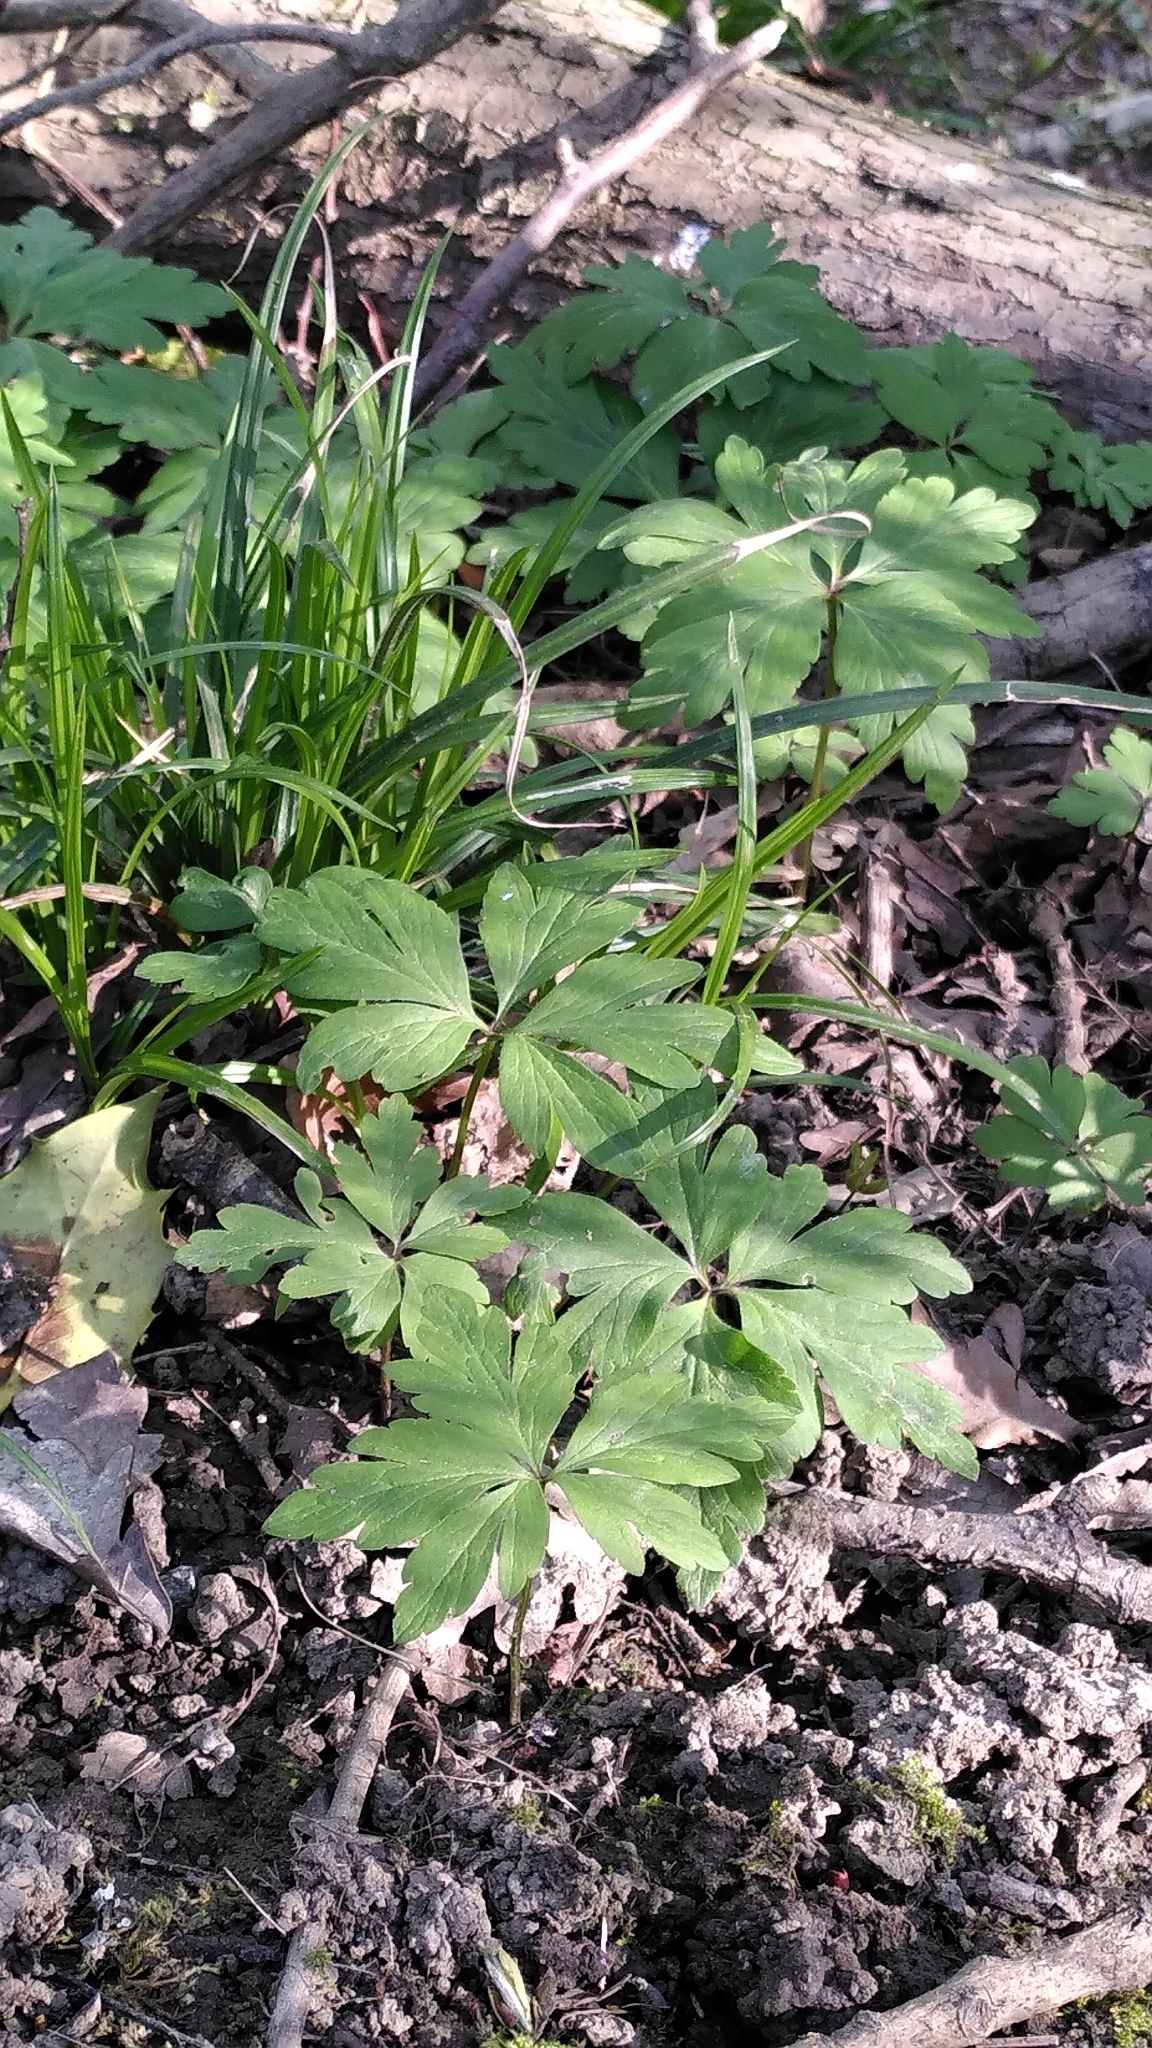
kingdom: Plantae
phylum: Tracheophyta
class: Magnoliopsida
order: Ranunculales
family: Ranunculaceae
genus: Anemone
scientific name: Anemone nemorosa
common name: Wood anemone
